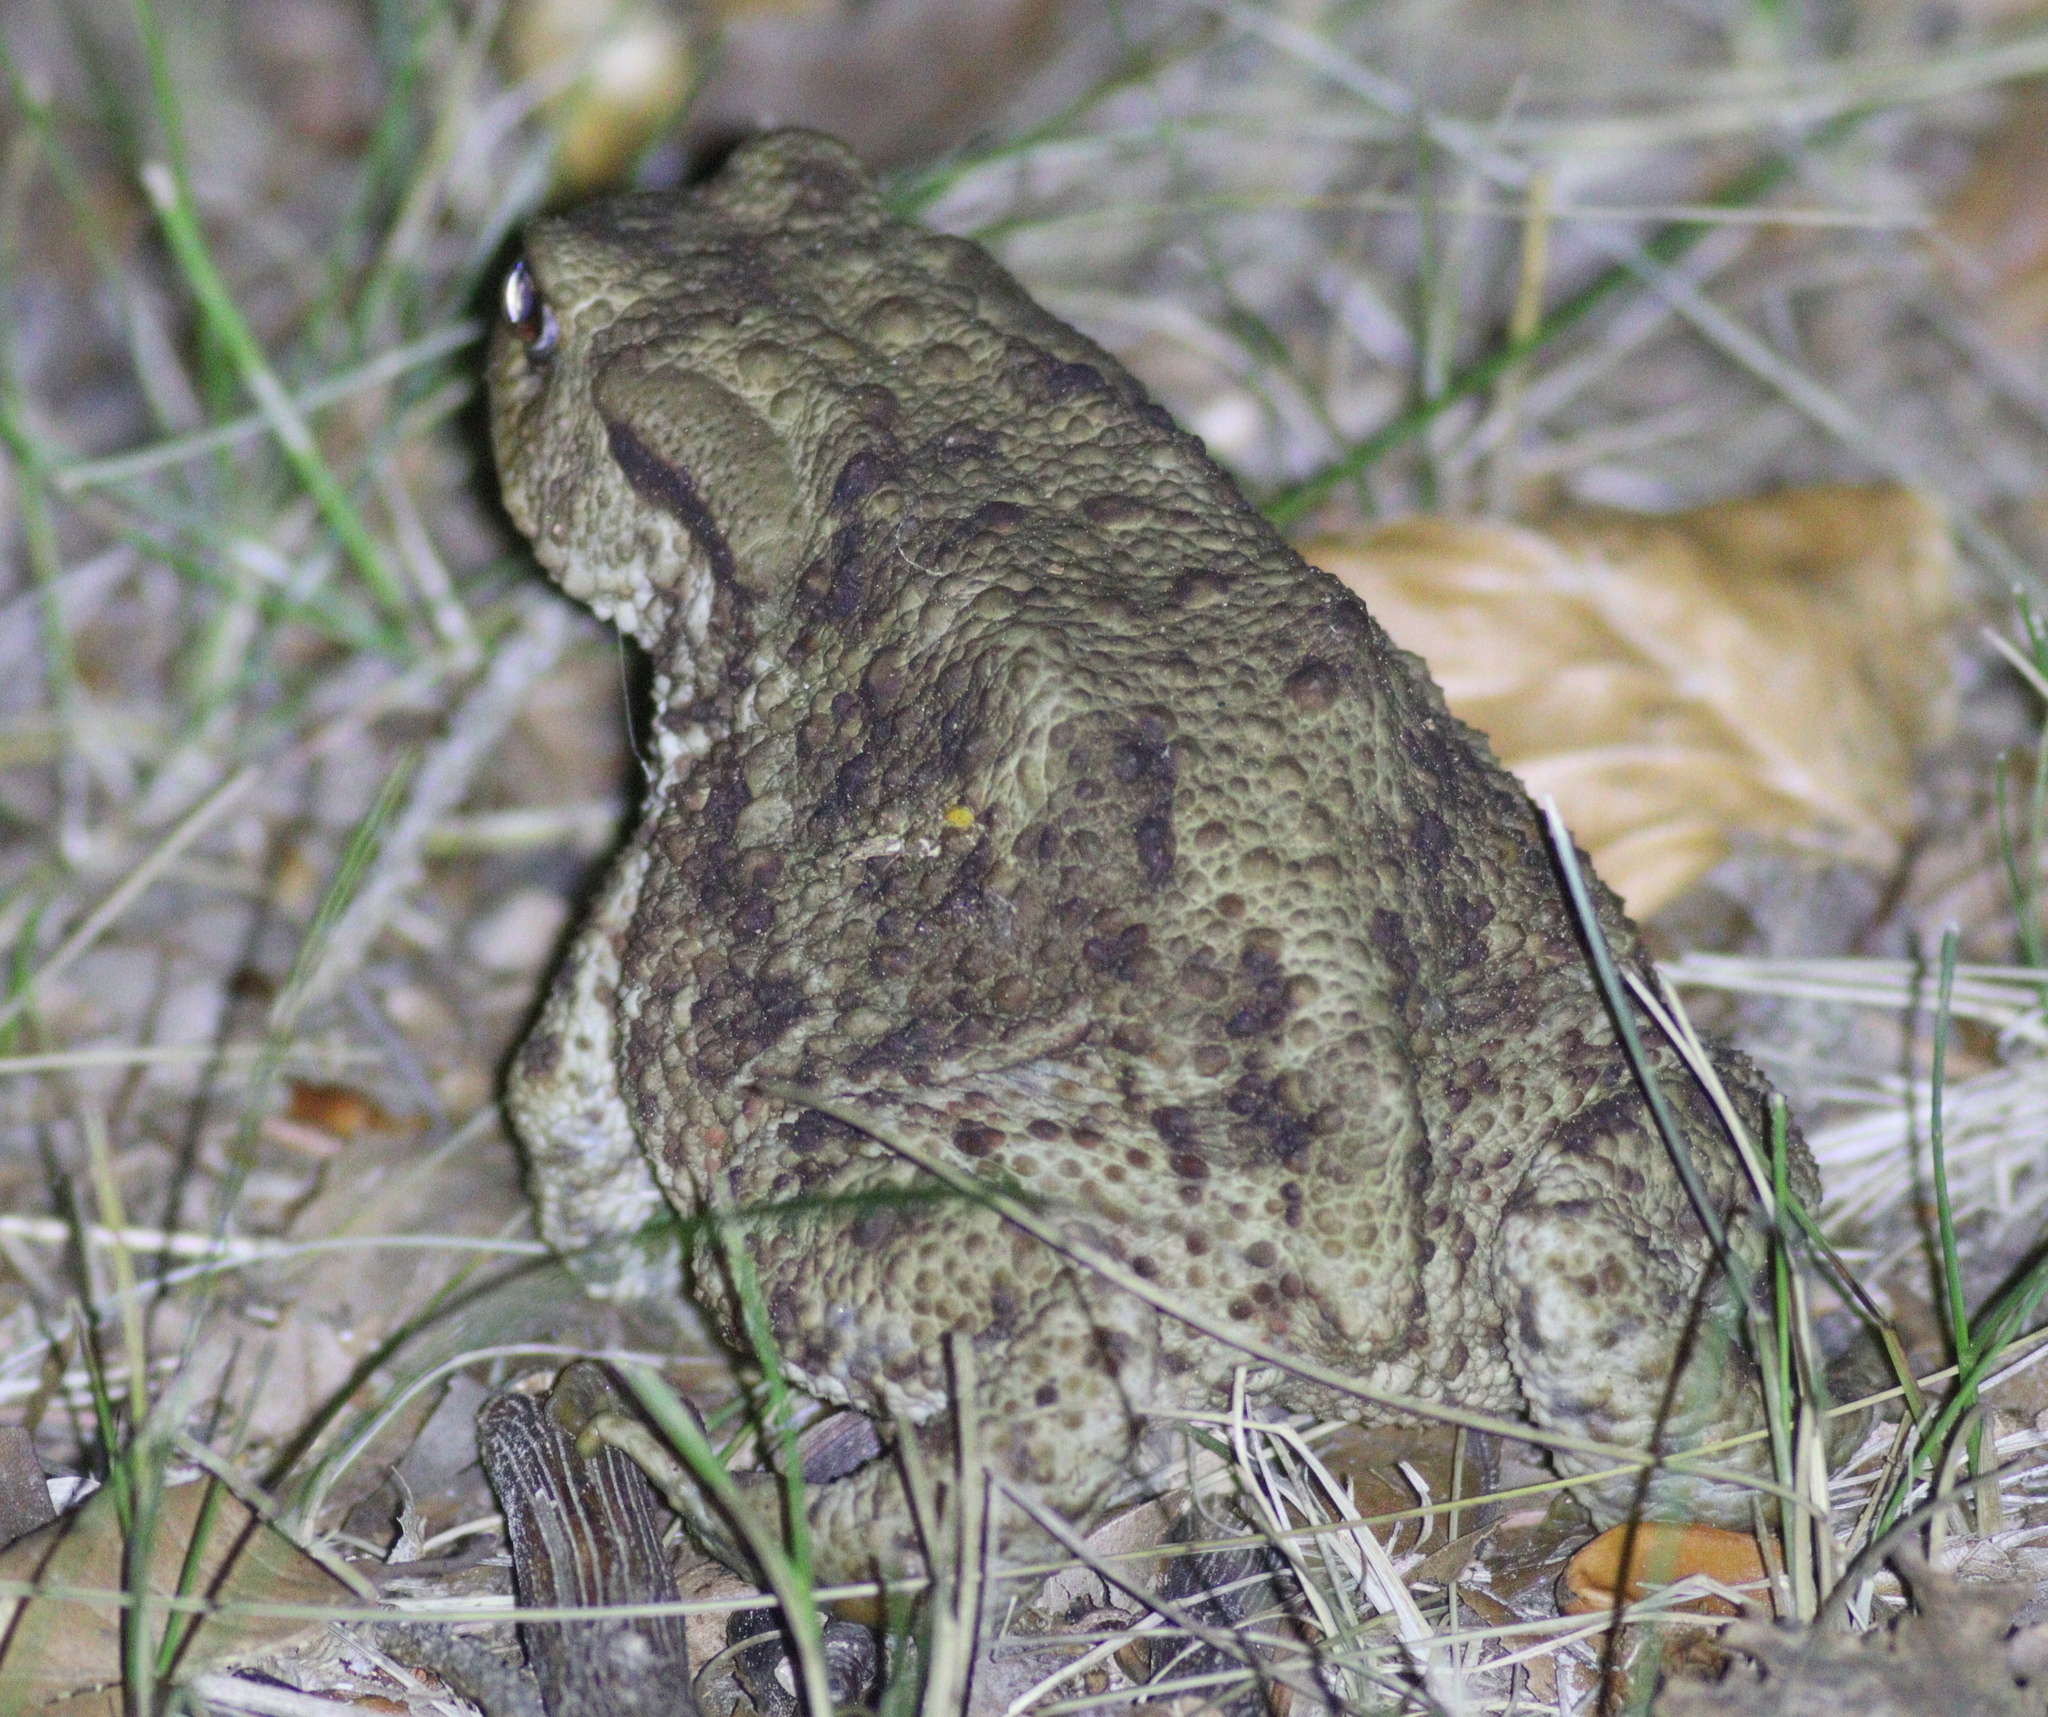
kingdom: Animalia
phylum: Chordata
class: Amphibia
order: Anura
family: Bufonidae
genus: Bufo
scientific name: Bufo bufo
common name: Common toad
